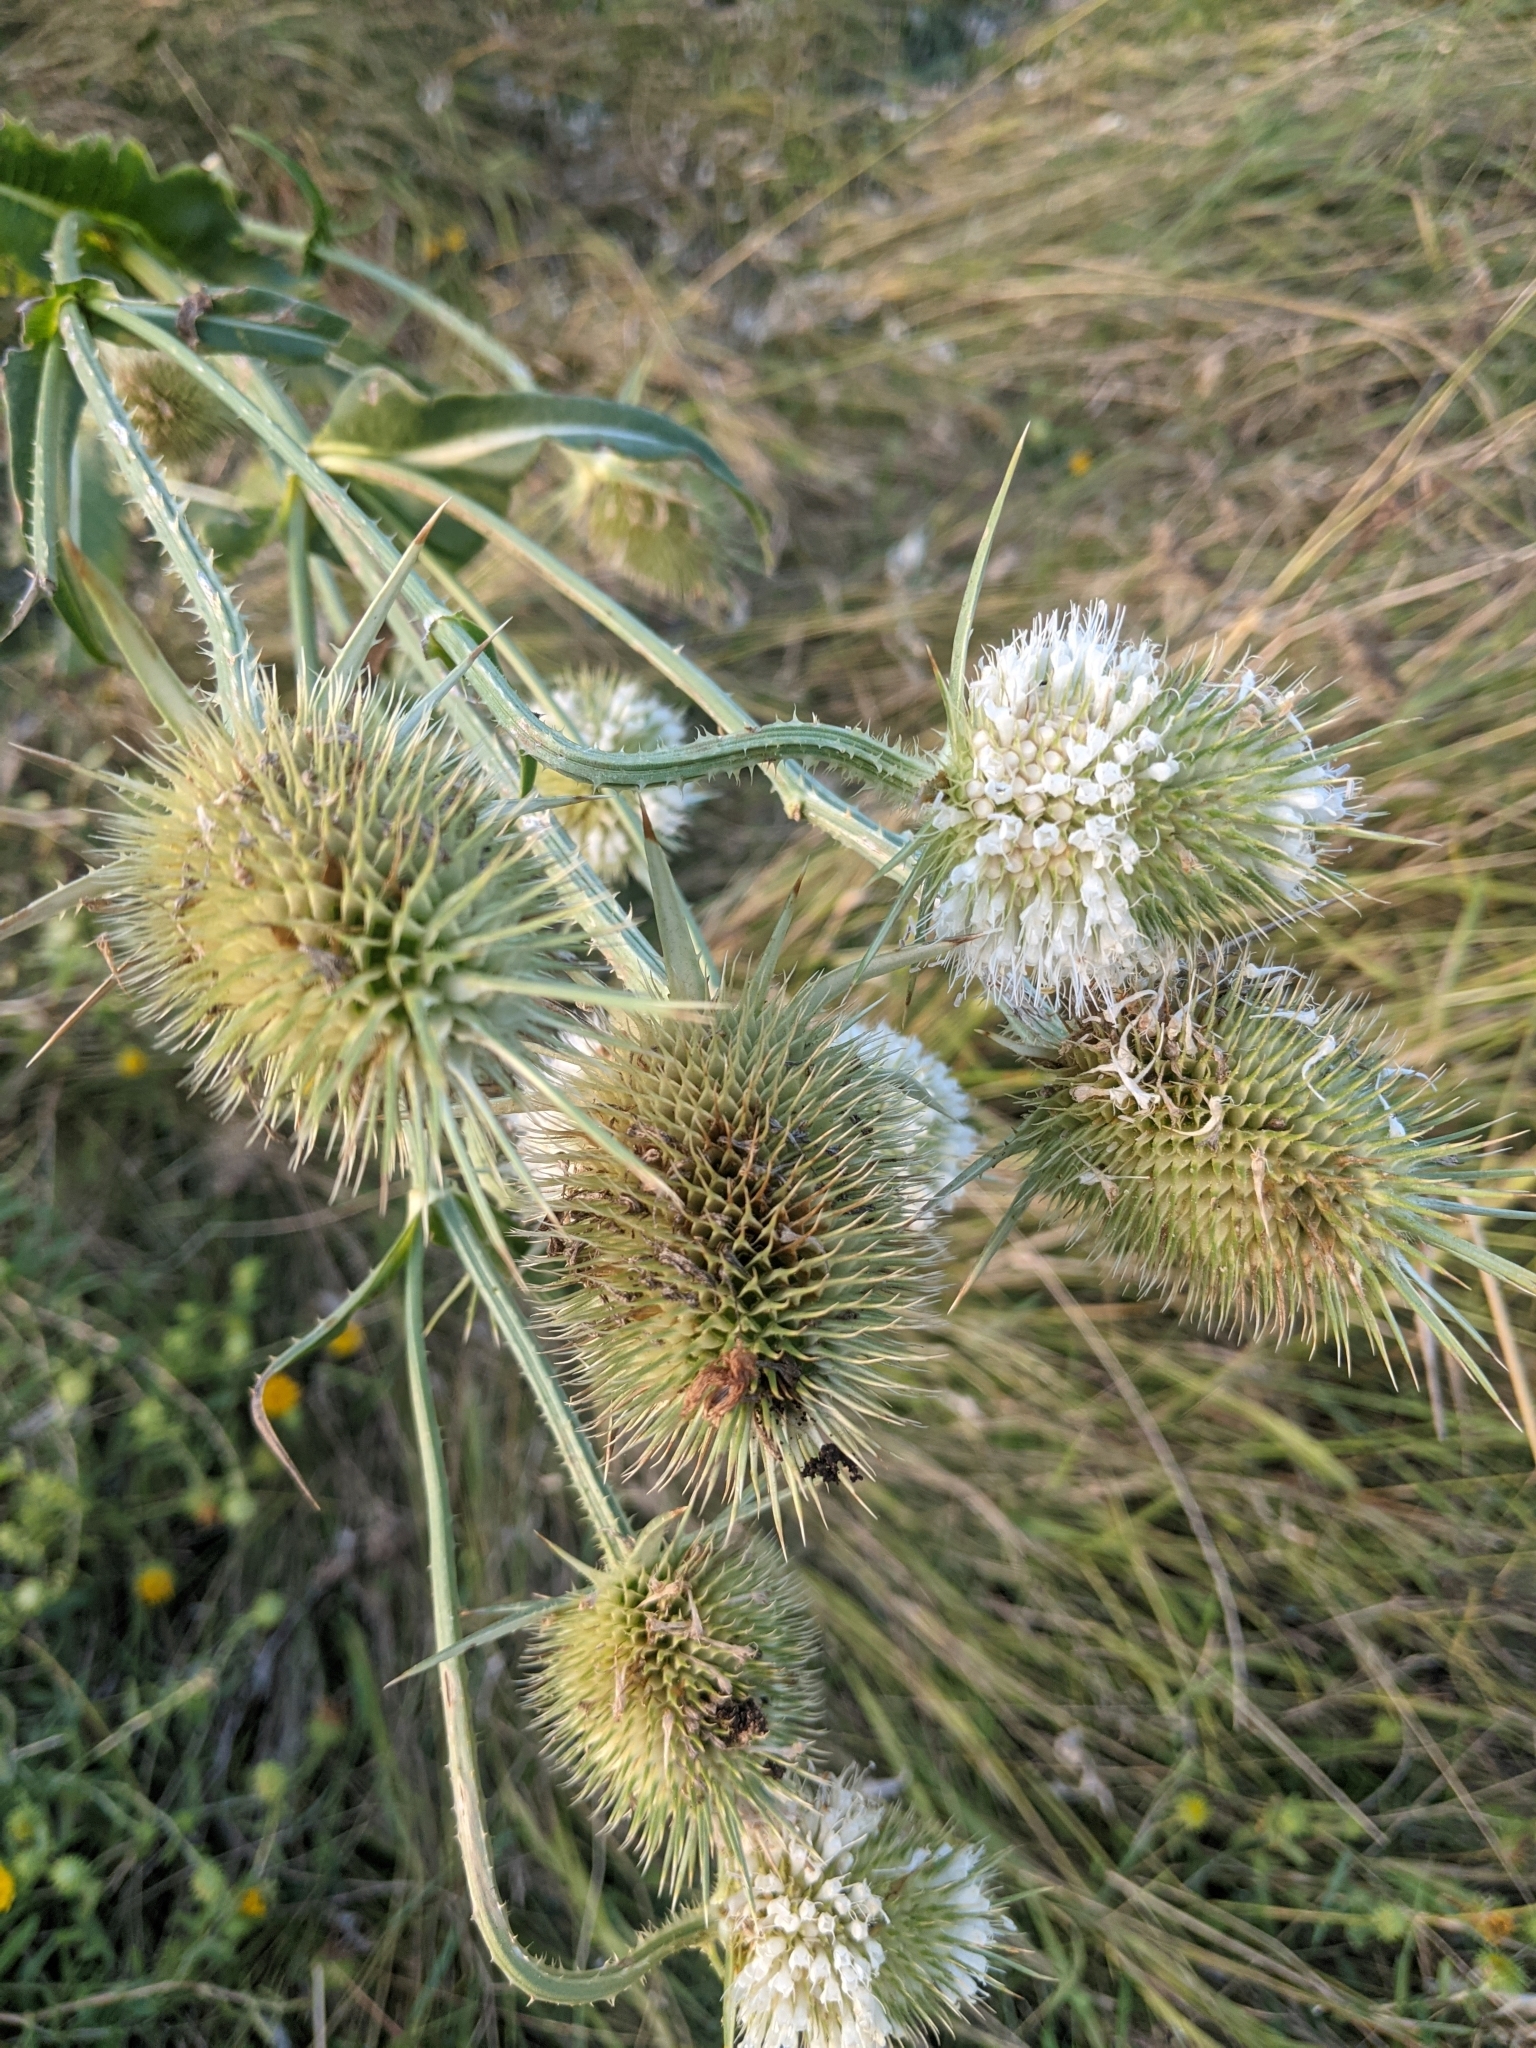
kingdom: Plantae
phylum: Tracheophyta
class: Magnoliopsida
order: Dipsacales
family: Caprifoliaceae
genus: Dipsacus
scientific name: Dipsacus laciniatus
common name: Cut-leaved teasel
